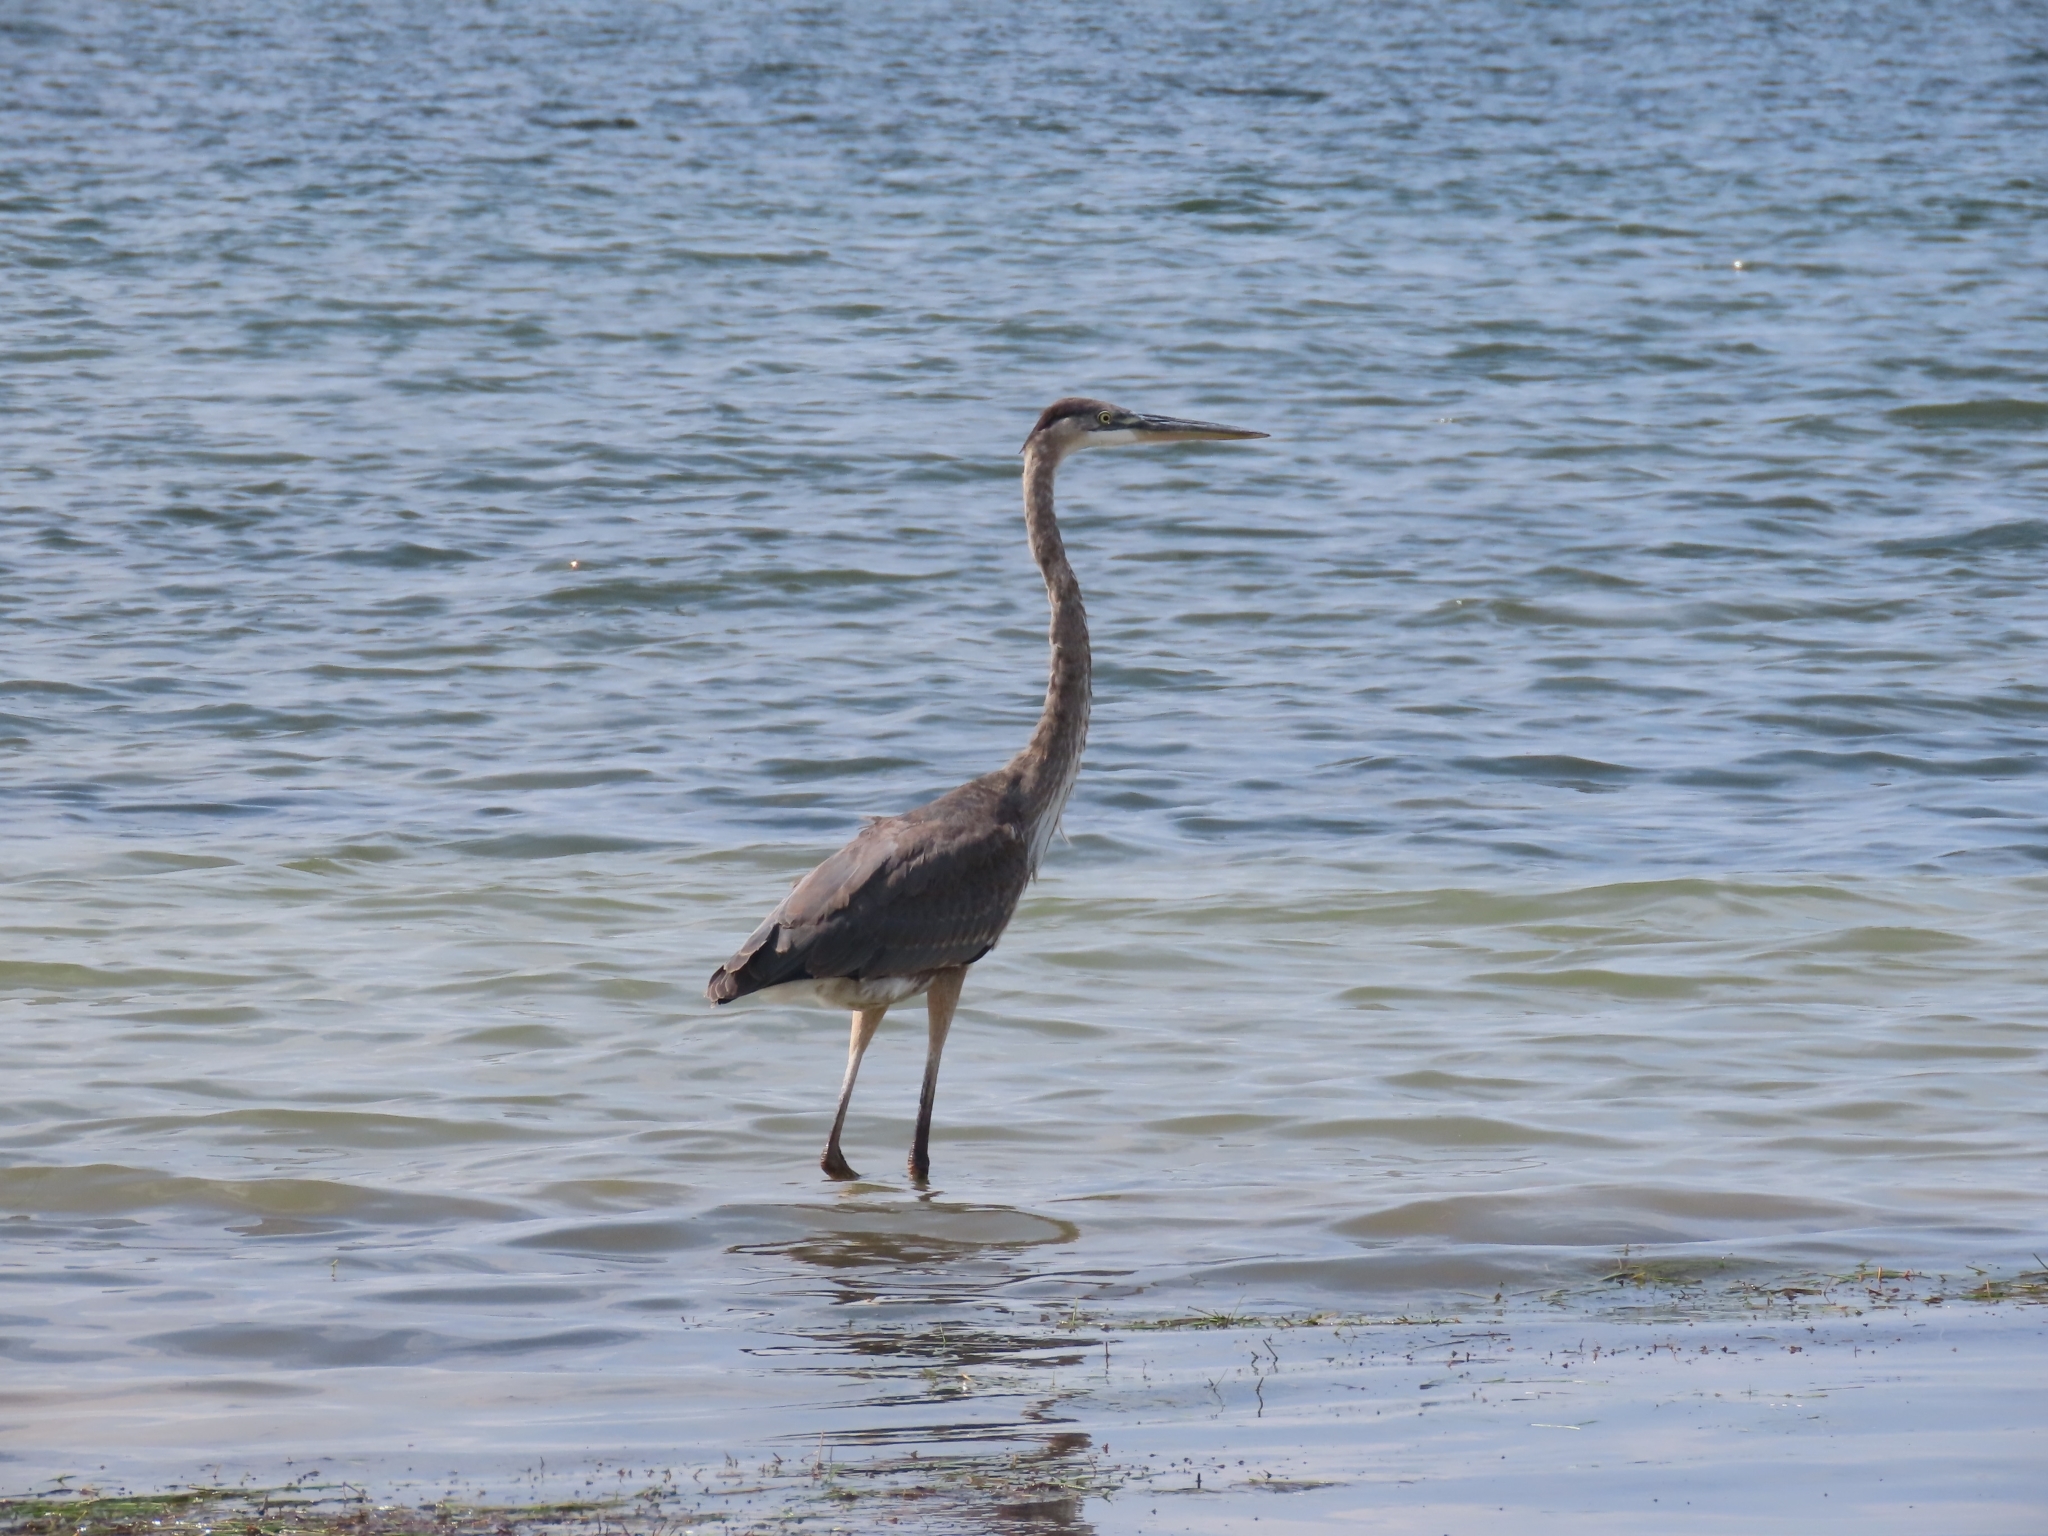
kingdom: Animalia
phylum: Chordata
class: Aves
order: Pelecaniformes
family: Ardeidae
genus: Ardea
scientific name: Ardea herodias
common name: Great blue heron
